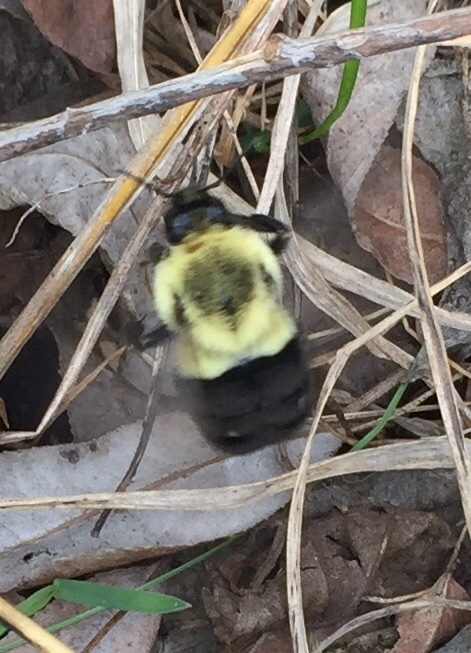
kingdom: Animalia
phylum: Arthropoda
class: Insecta
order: Hymenoptera
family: Apidae
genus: Bombus
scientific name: Bombus impatiens
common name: Common eastern bumble bee
